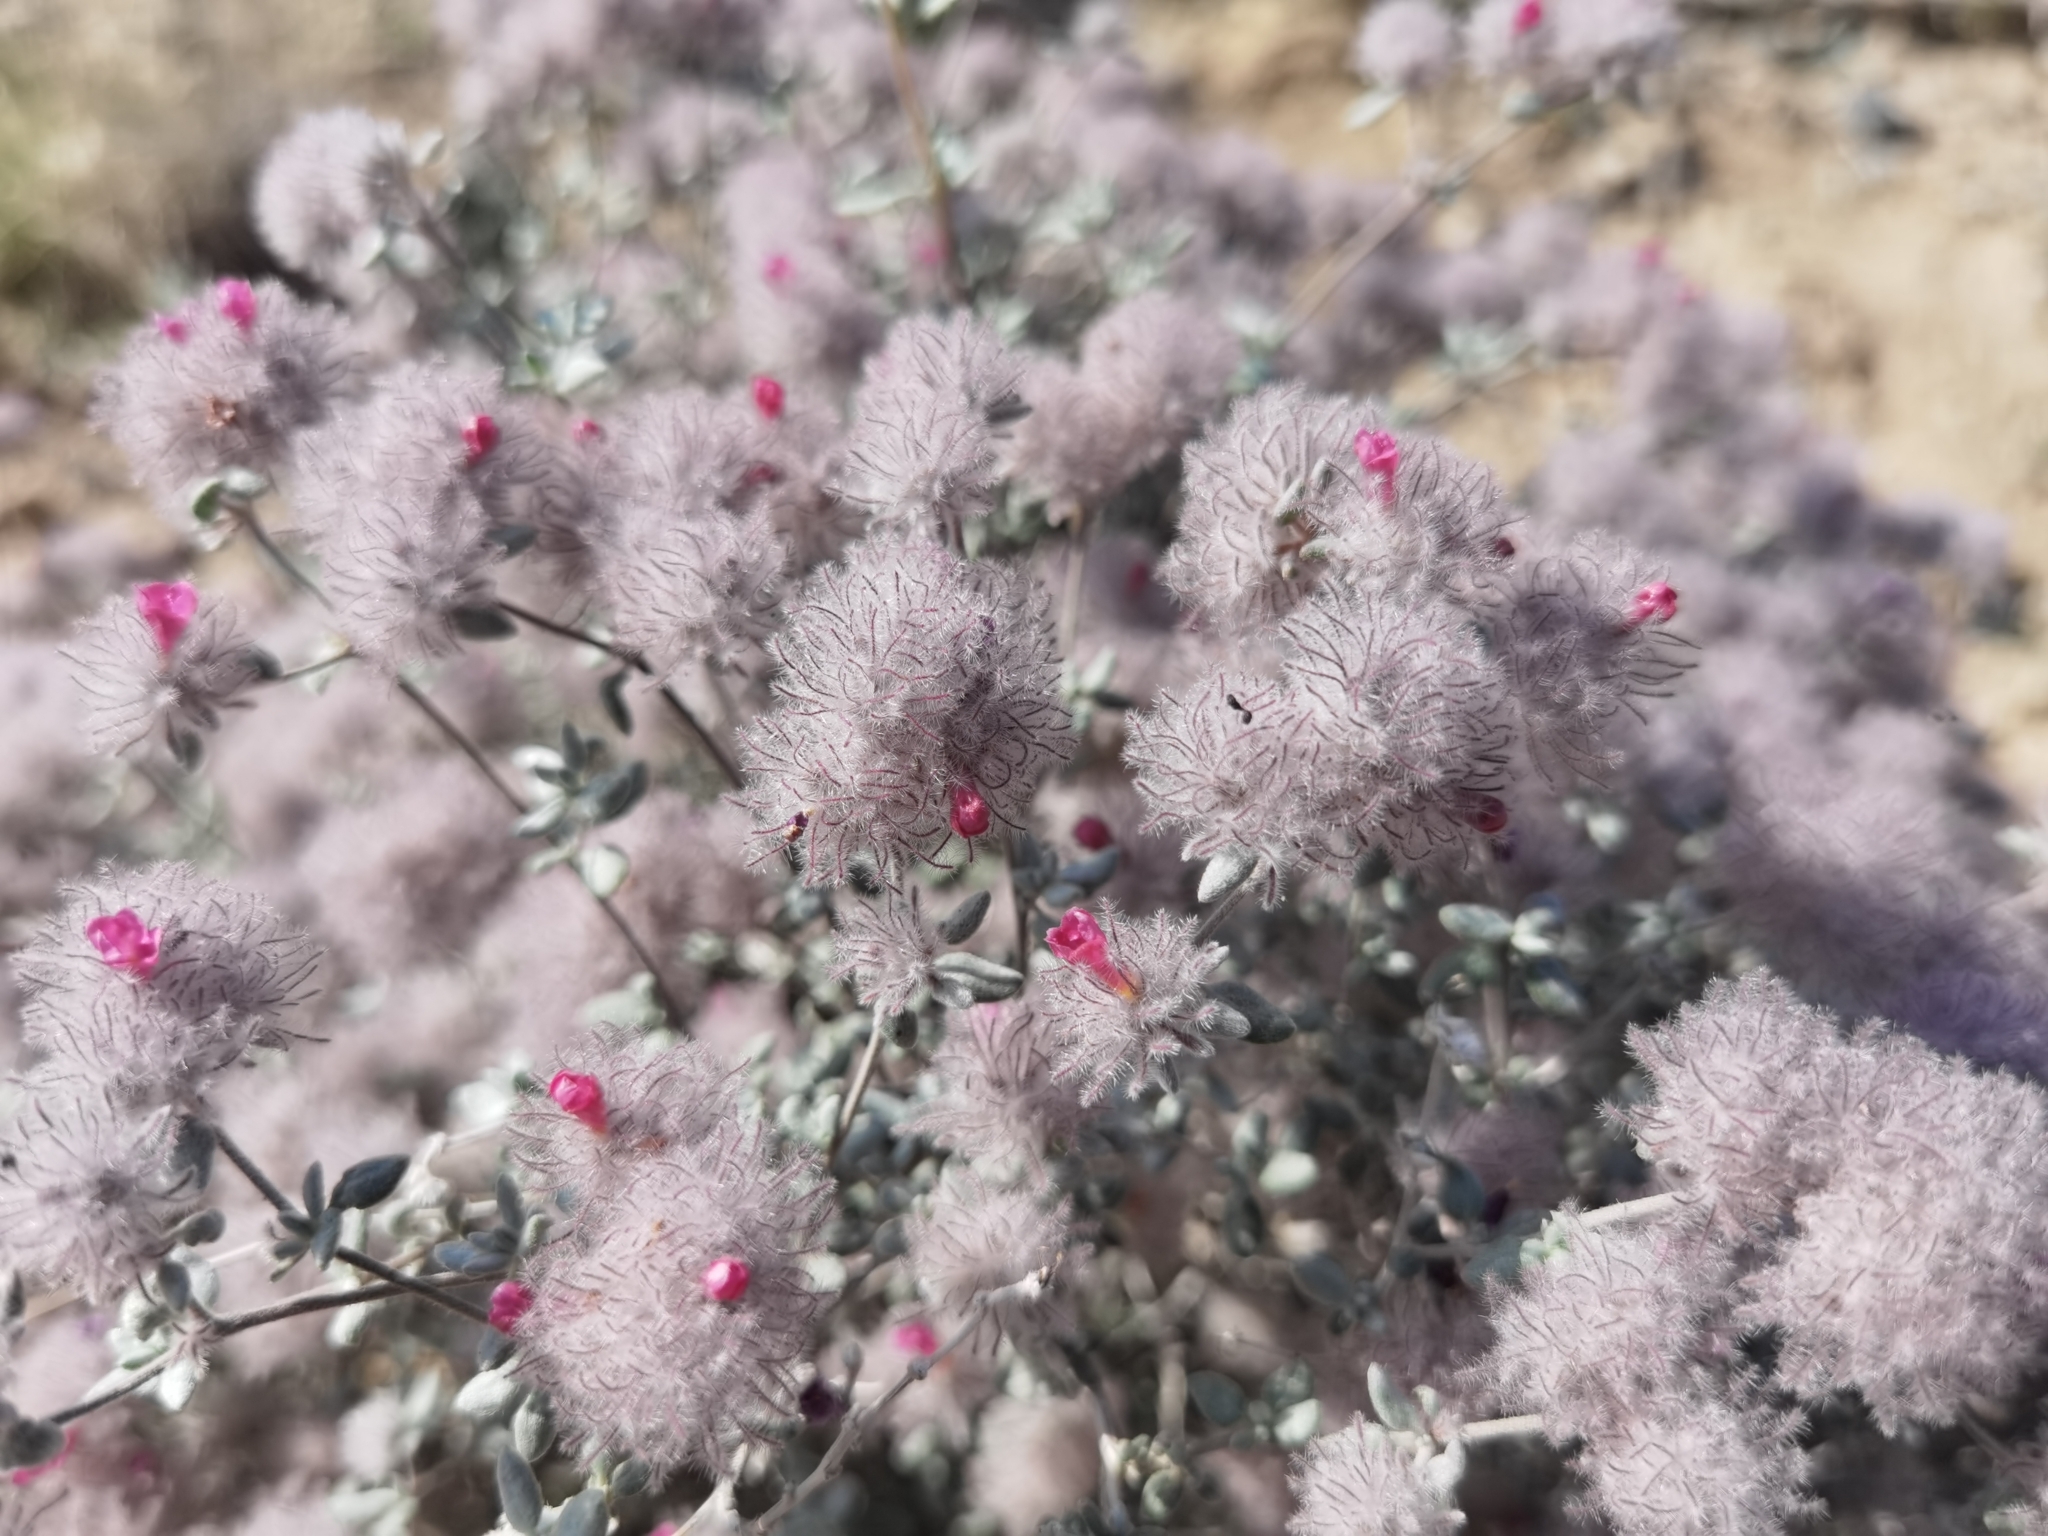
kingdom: Plantae
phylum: Tracheophyta
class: Magnoliopsida
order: Boraginales
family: Ehretiaceae
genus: Tiquilia
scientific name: Tiquilia greggii
